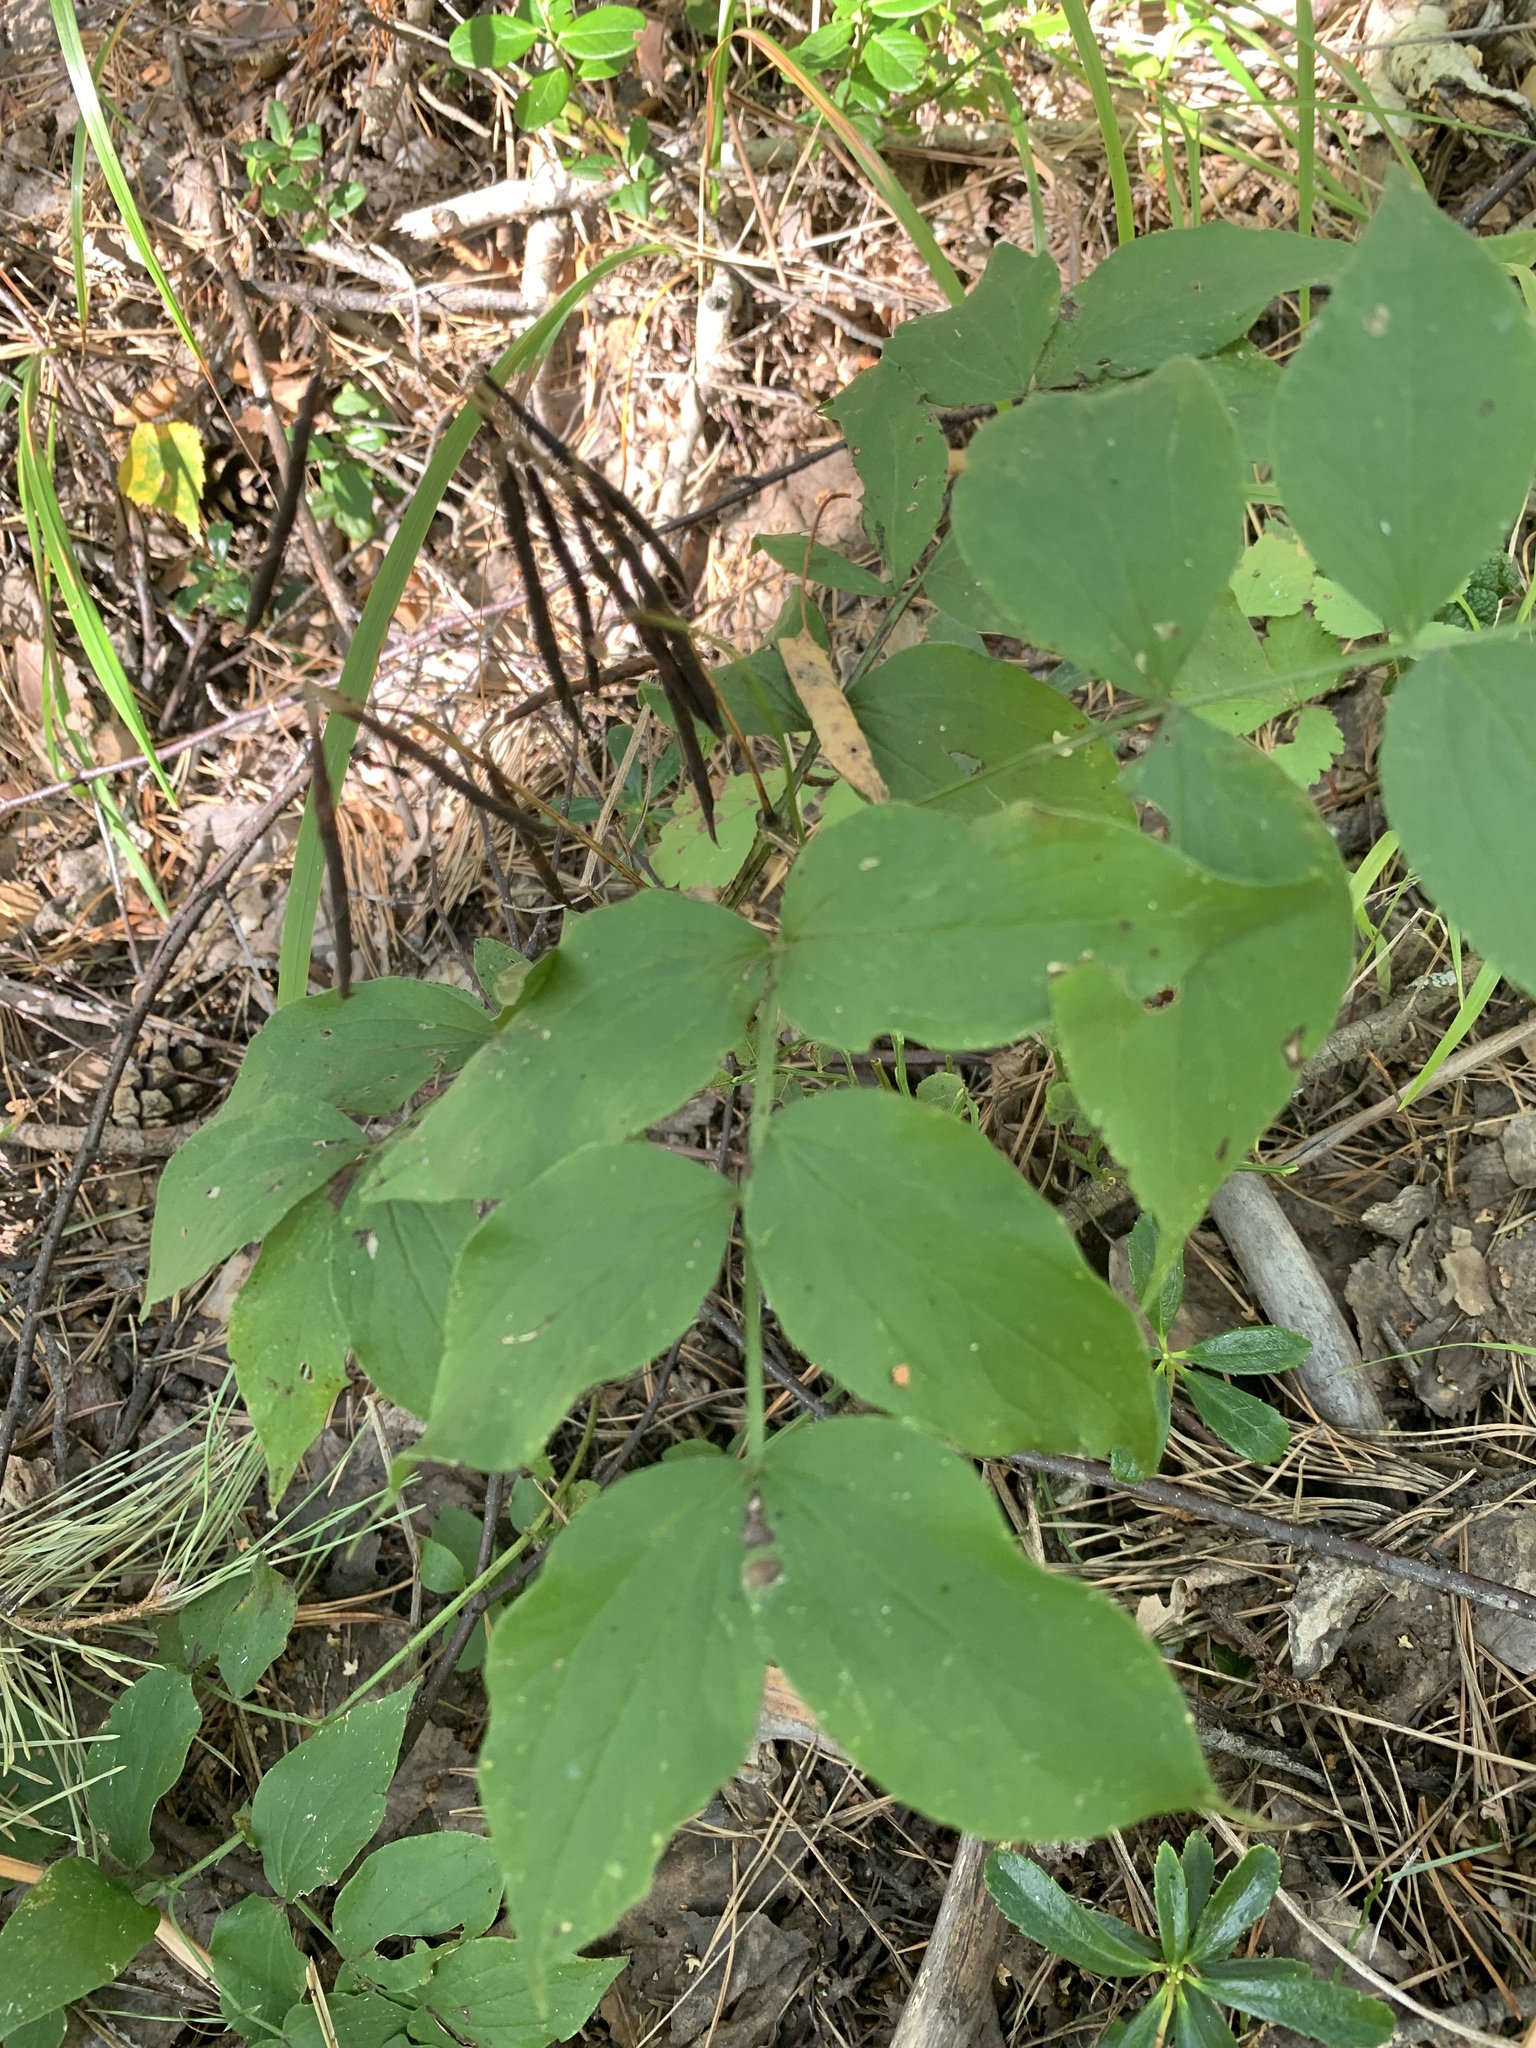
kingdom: Plantae
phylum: Tracheophyta
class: Magnoliopsida
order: Fabales
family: Fabaceae
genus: Lathyrus
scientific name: Lathyrus vernus
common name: Spring pea
